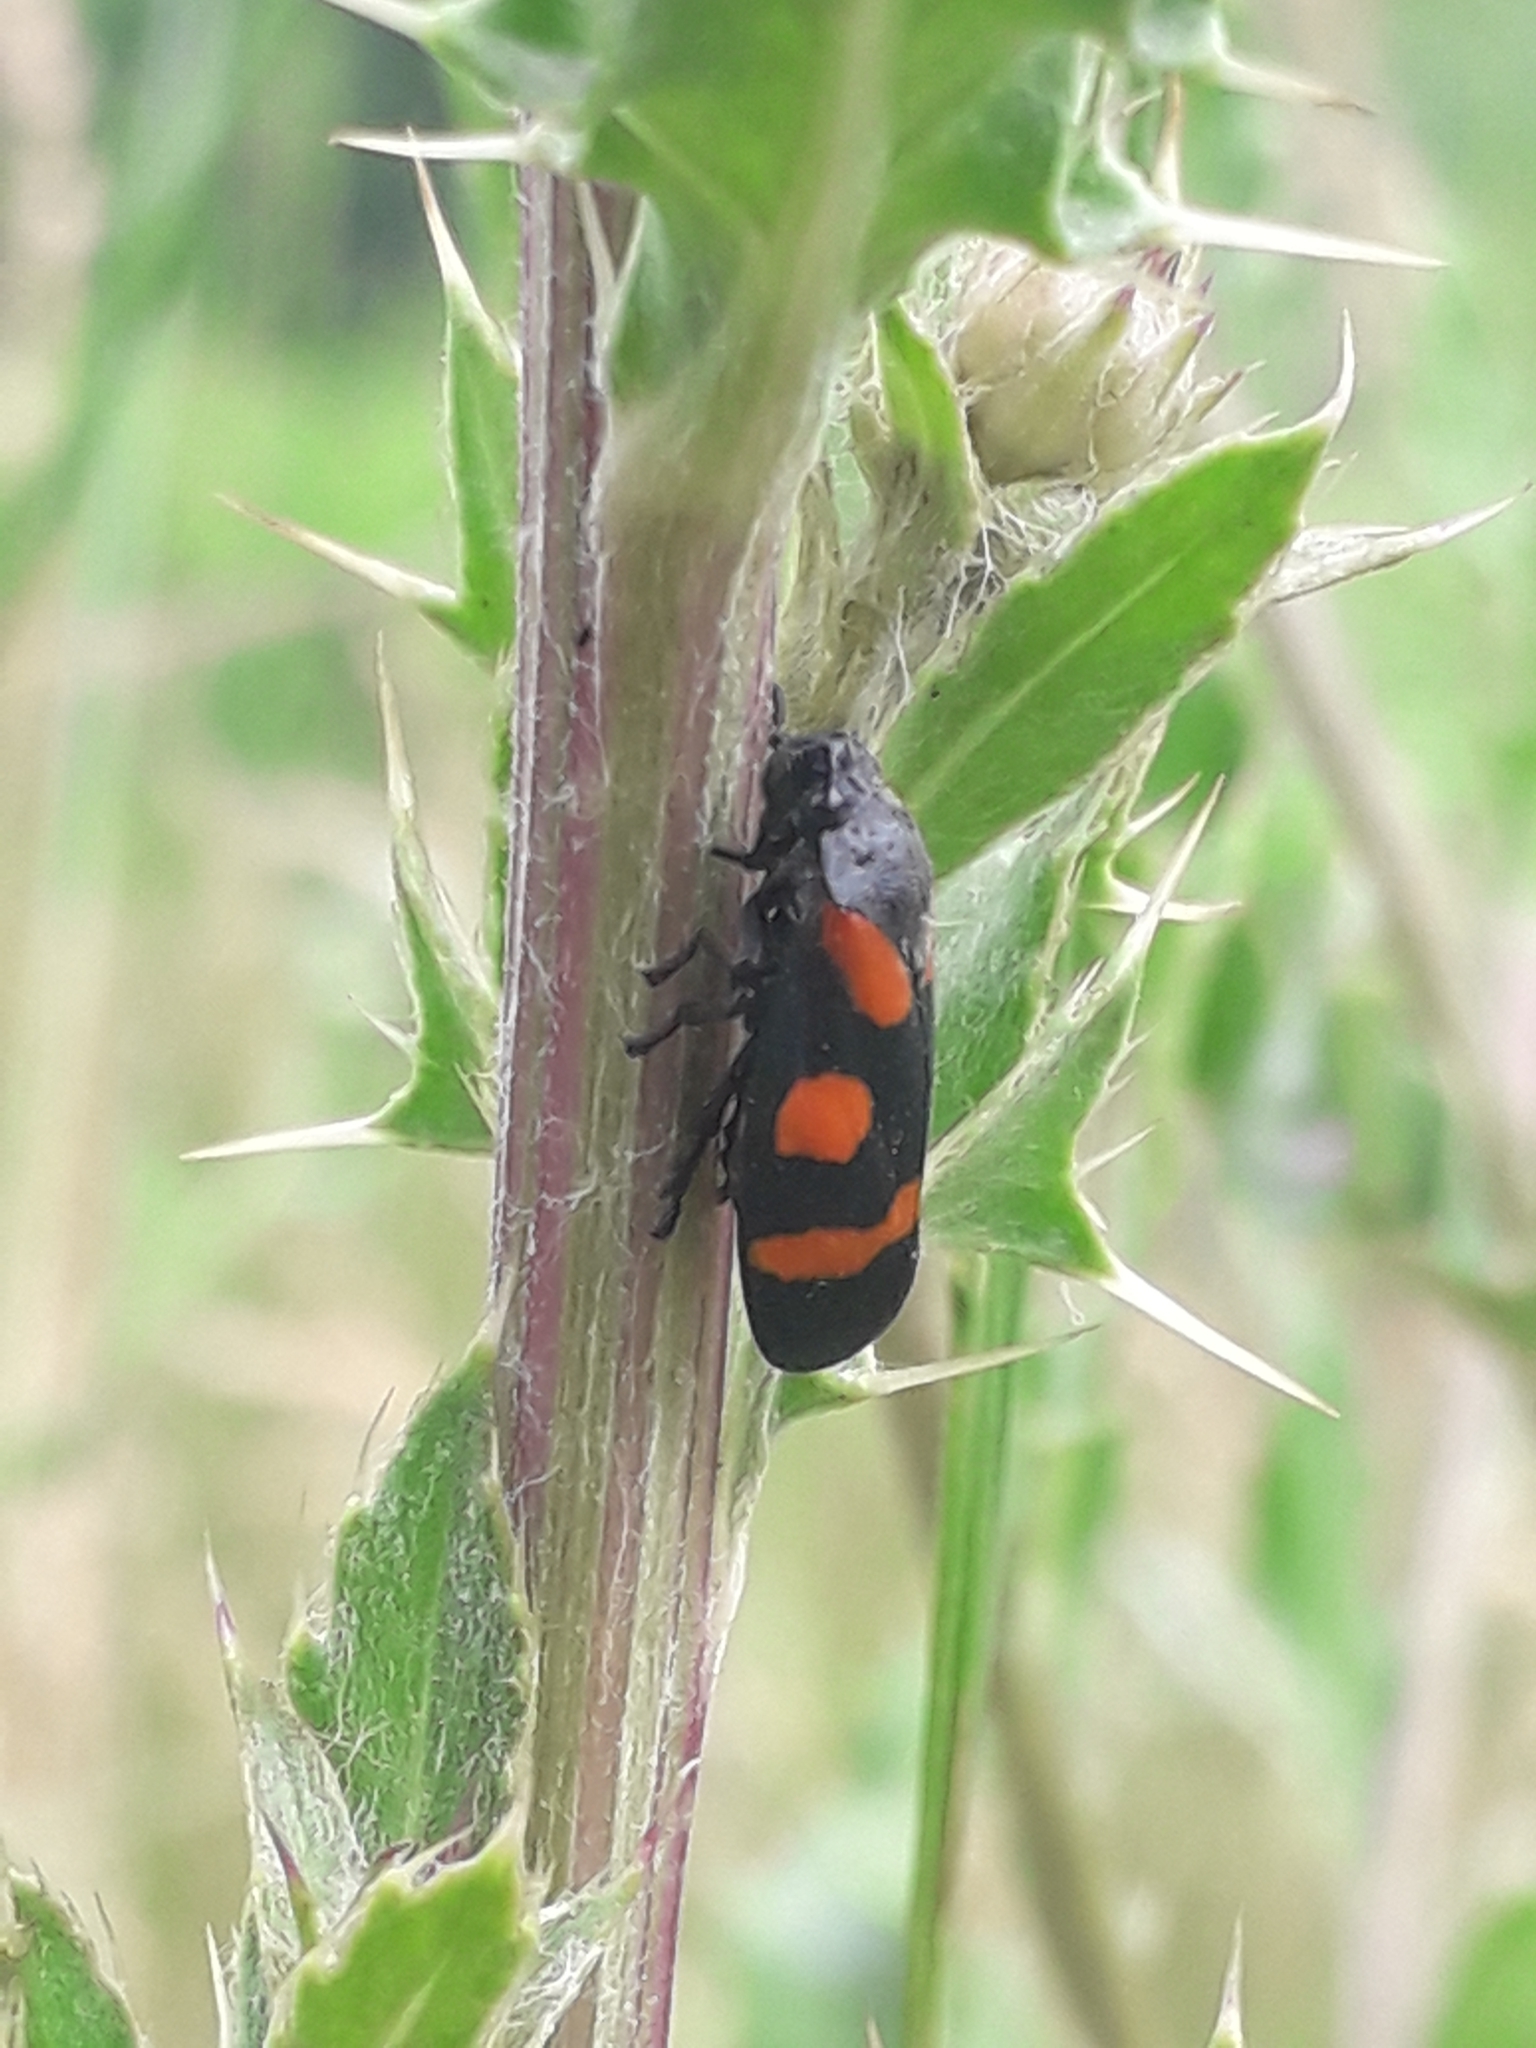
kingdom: Animalia
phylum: Arthropoda
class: Insecta
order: Hemiptera
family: Cercopidae
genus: Cercopis
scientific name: Cercopis sanguinolenta
